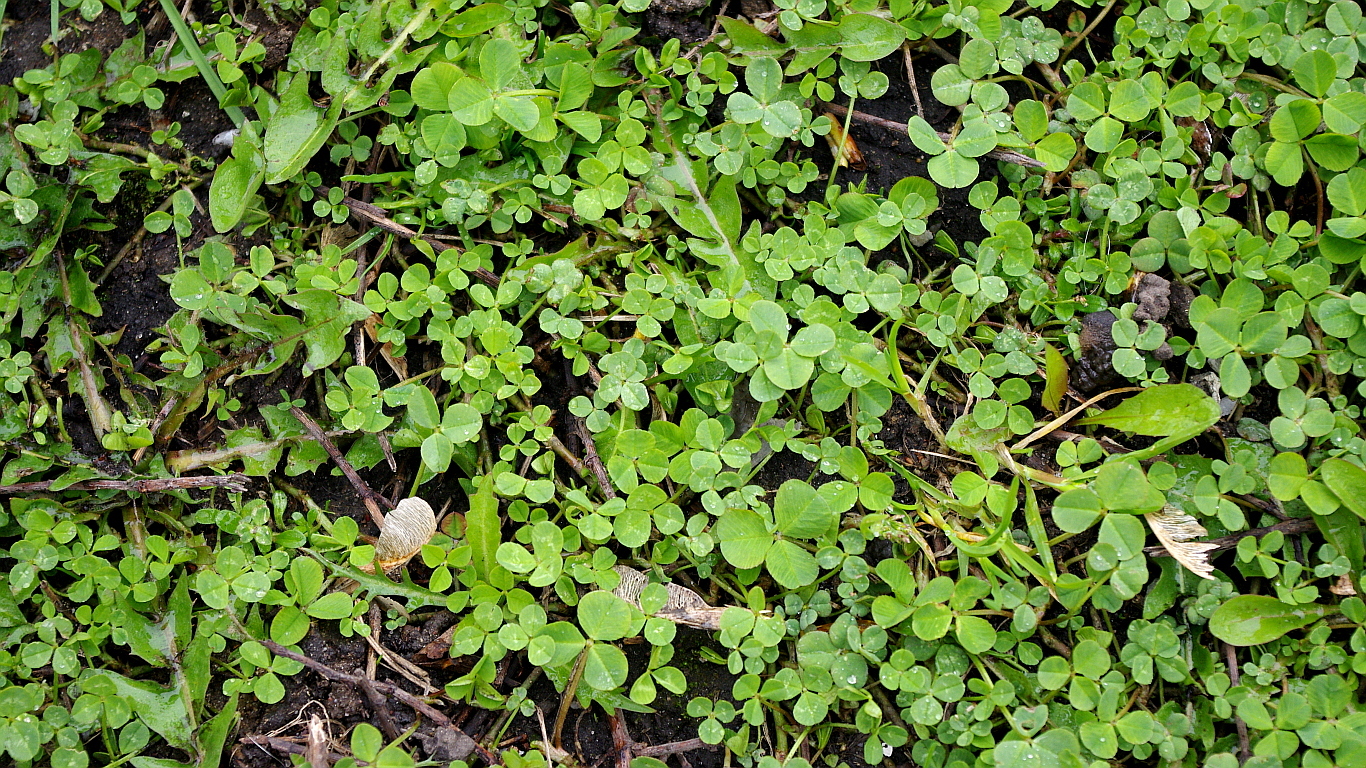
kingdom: Plantae
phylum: Tracheophyta
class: Magnoliopsida
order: Fabales
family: Fabaceae
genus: Trifolium
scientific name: Trifolium repens
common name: White clover
